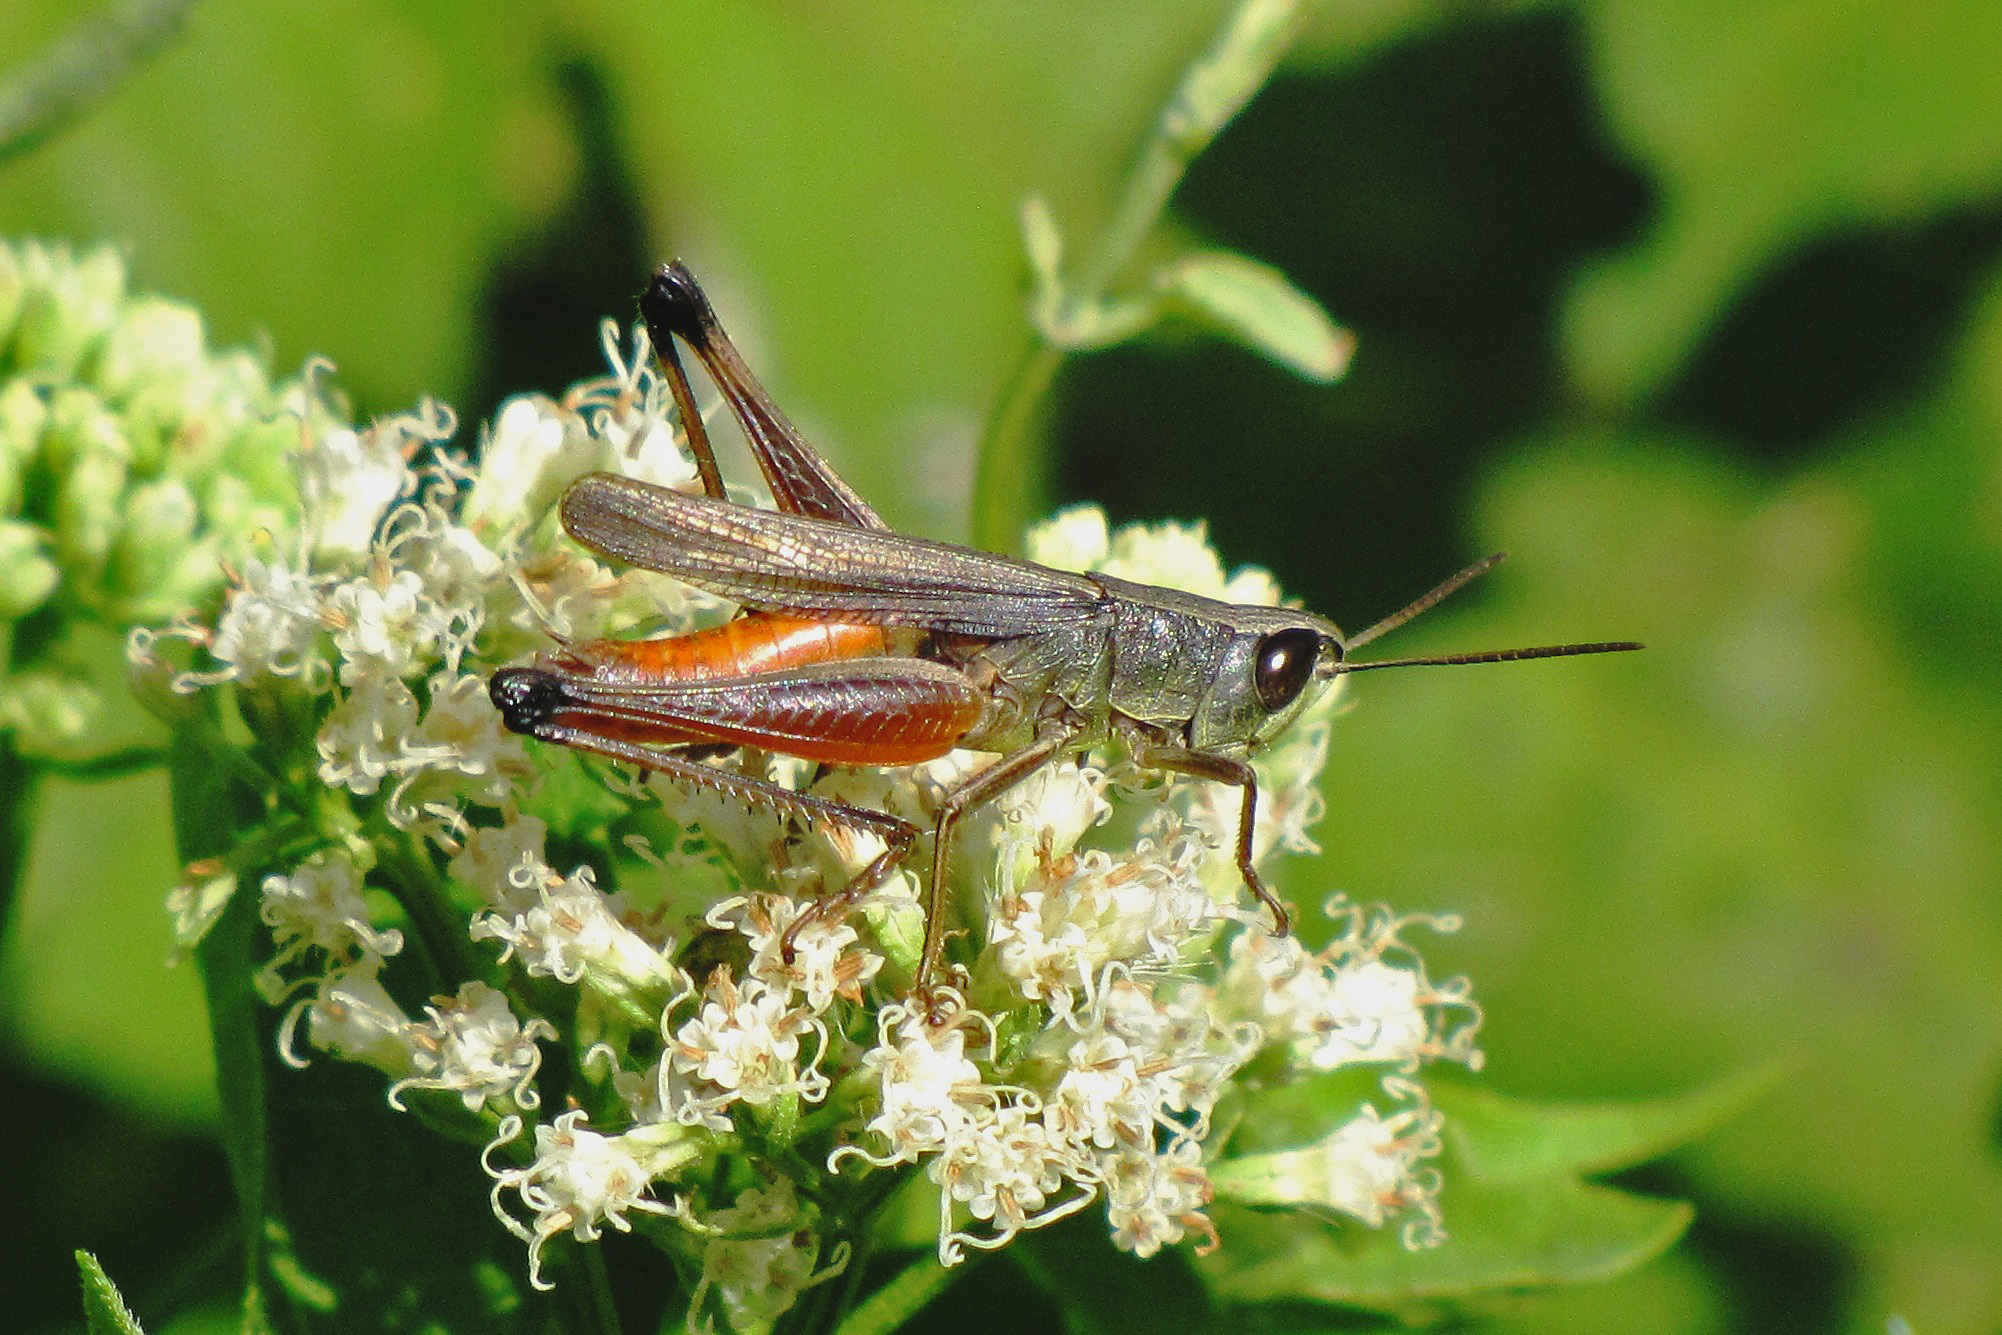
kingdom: Animalia
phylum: Arthropoda
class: Insecta
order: Orthoptera
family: Acrididae
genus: Amblytropidia
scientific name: Amblytropidia australis
